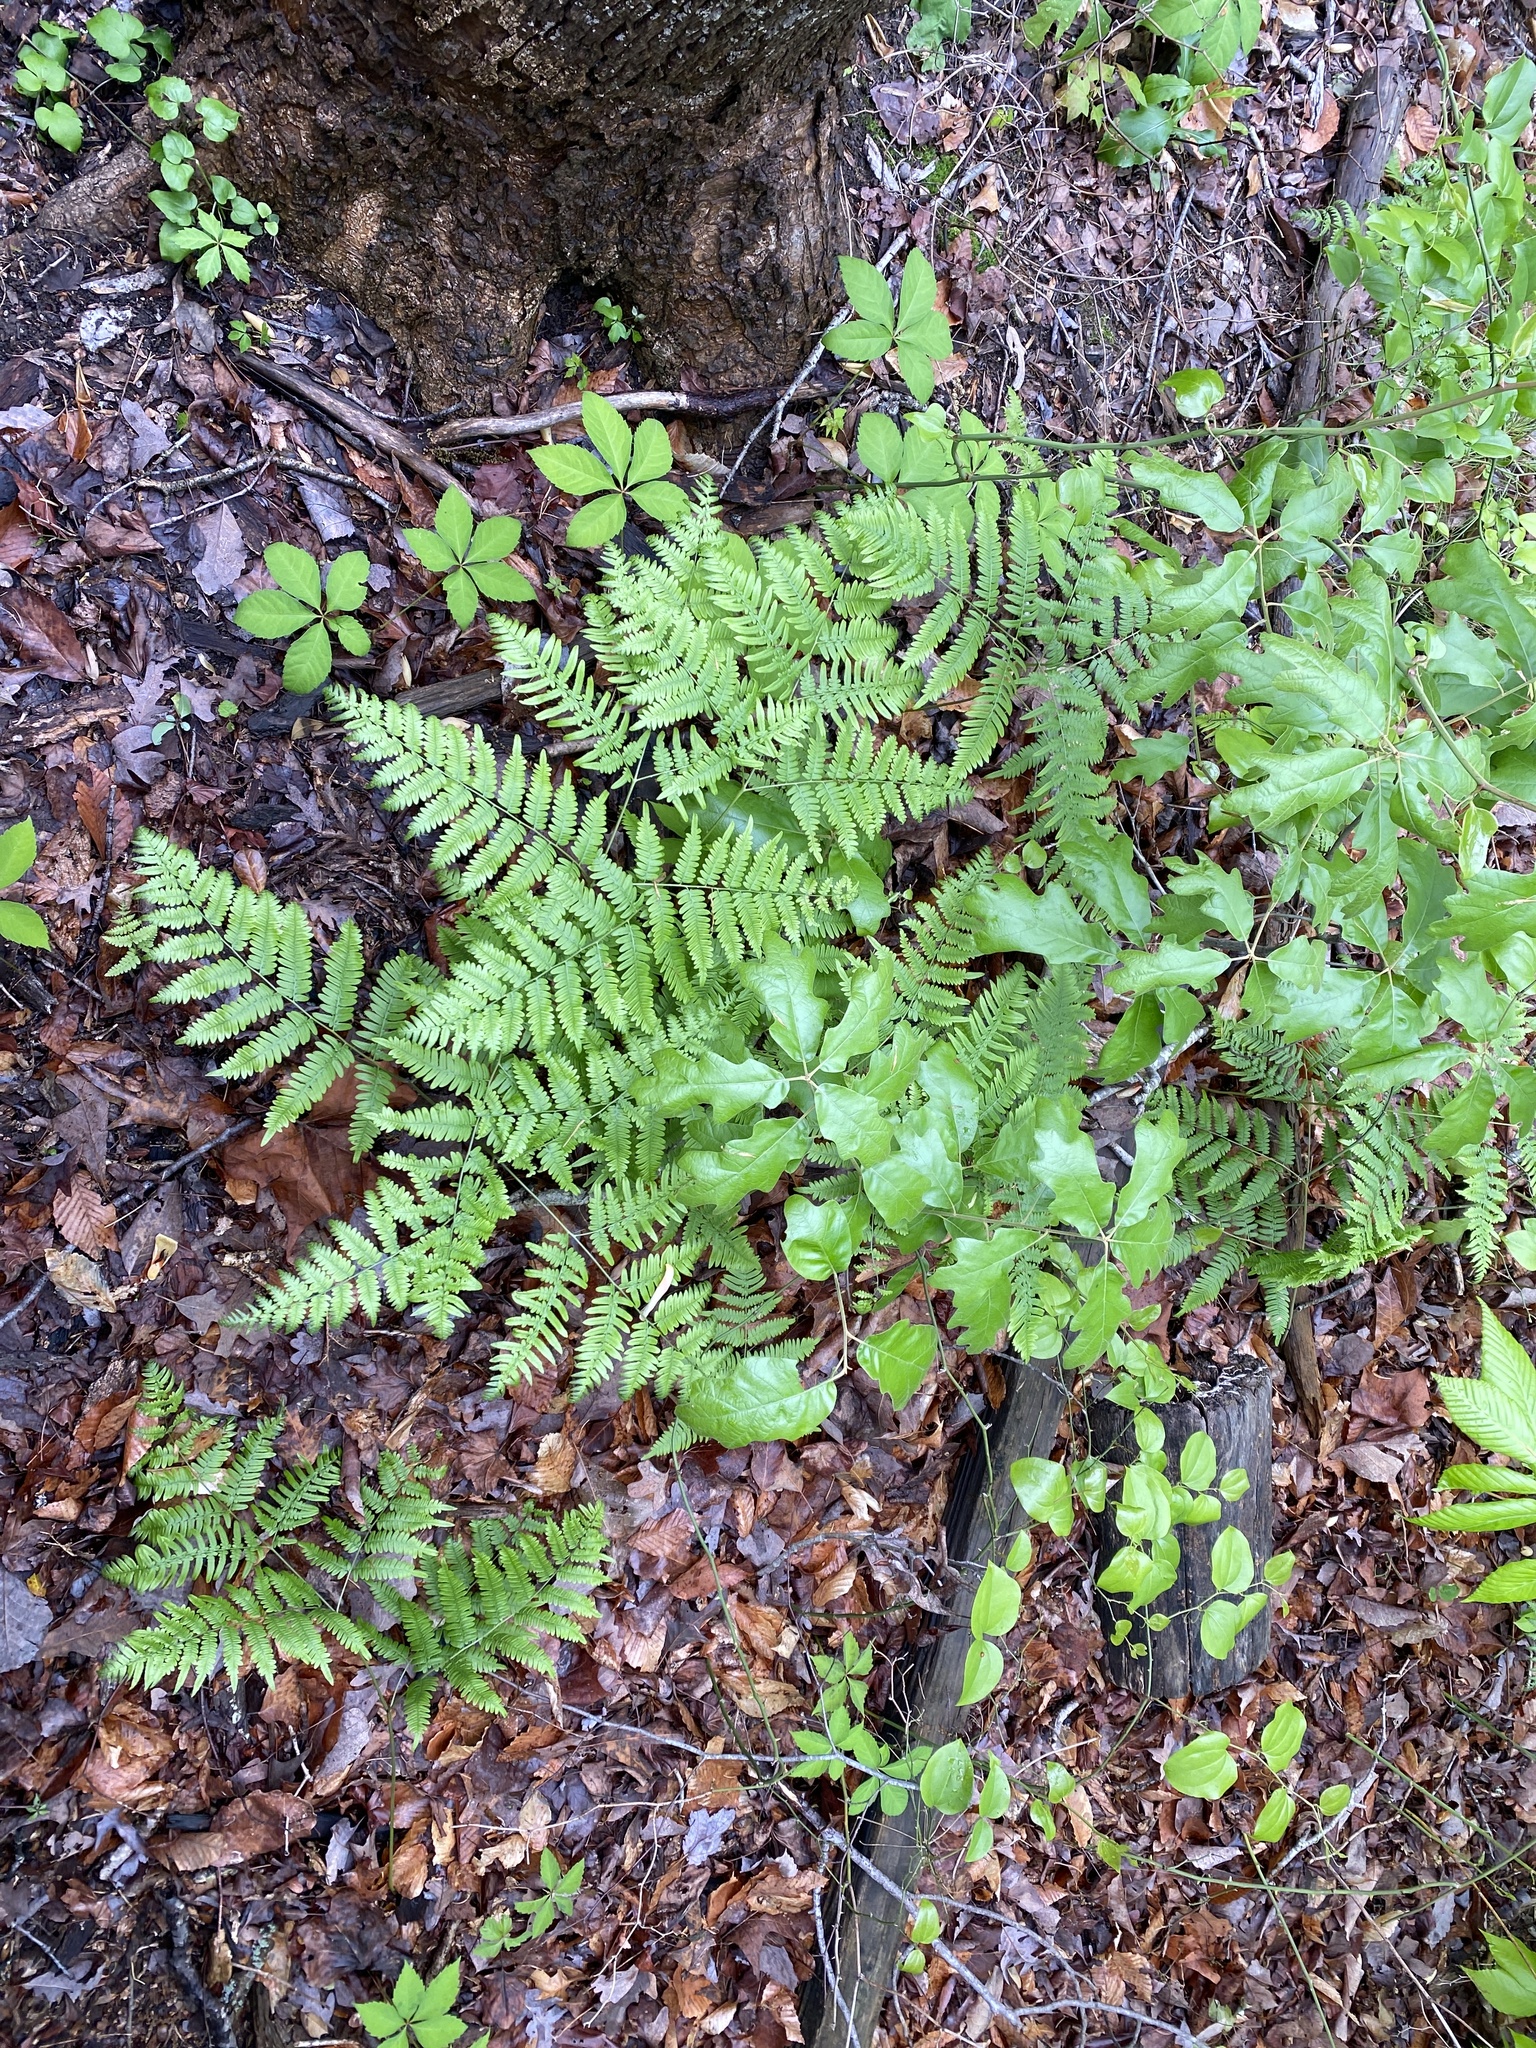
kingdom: Plantae
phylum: Tracheophyta
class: Polypodiopsida
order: Polypodiales
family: Dennstaedtiaceae
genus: Pteridium
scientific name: Pteridium aquilinum
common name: Bracken
